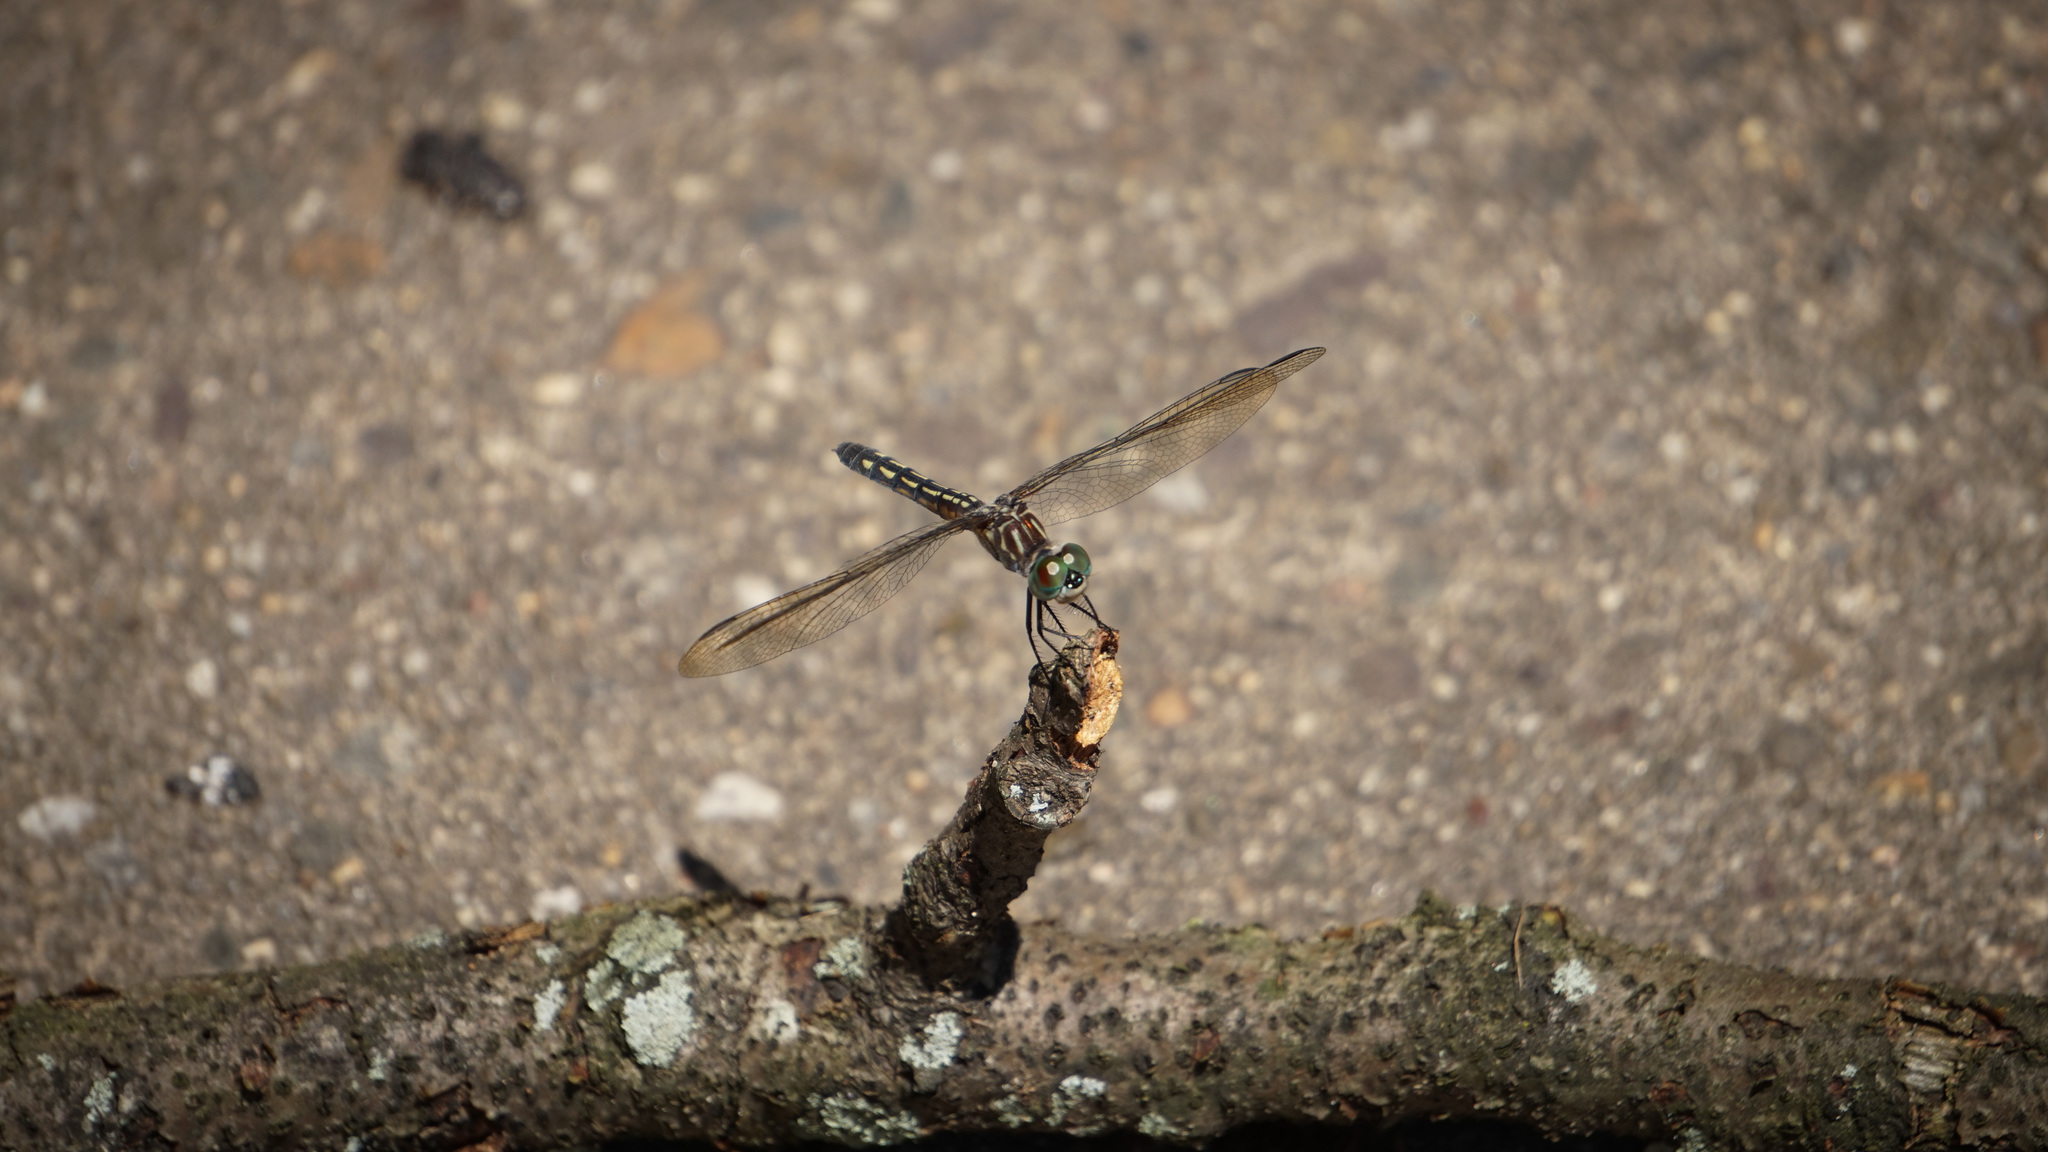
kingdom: Animalia
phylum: Arthropoda
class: Insecta
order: Odonata
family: Libellulidae
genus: Pachydiplax
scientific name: Pachydiplax longipennis
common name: Blue dasher
